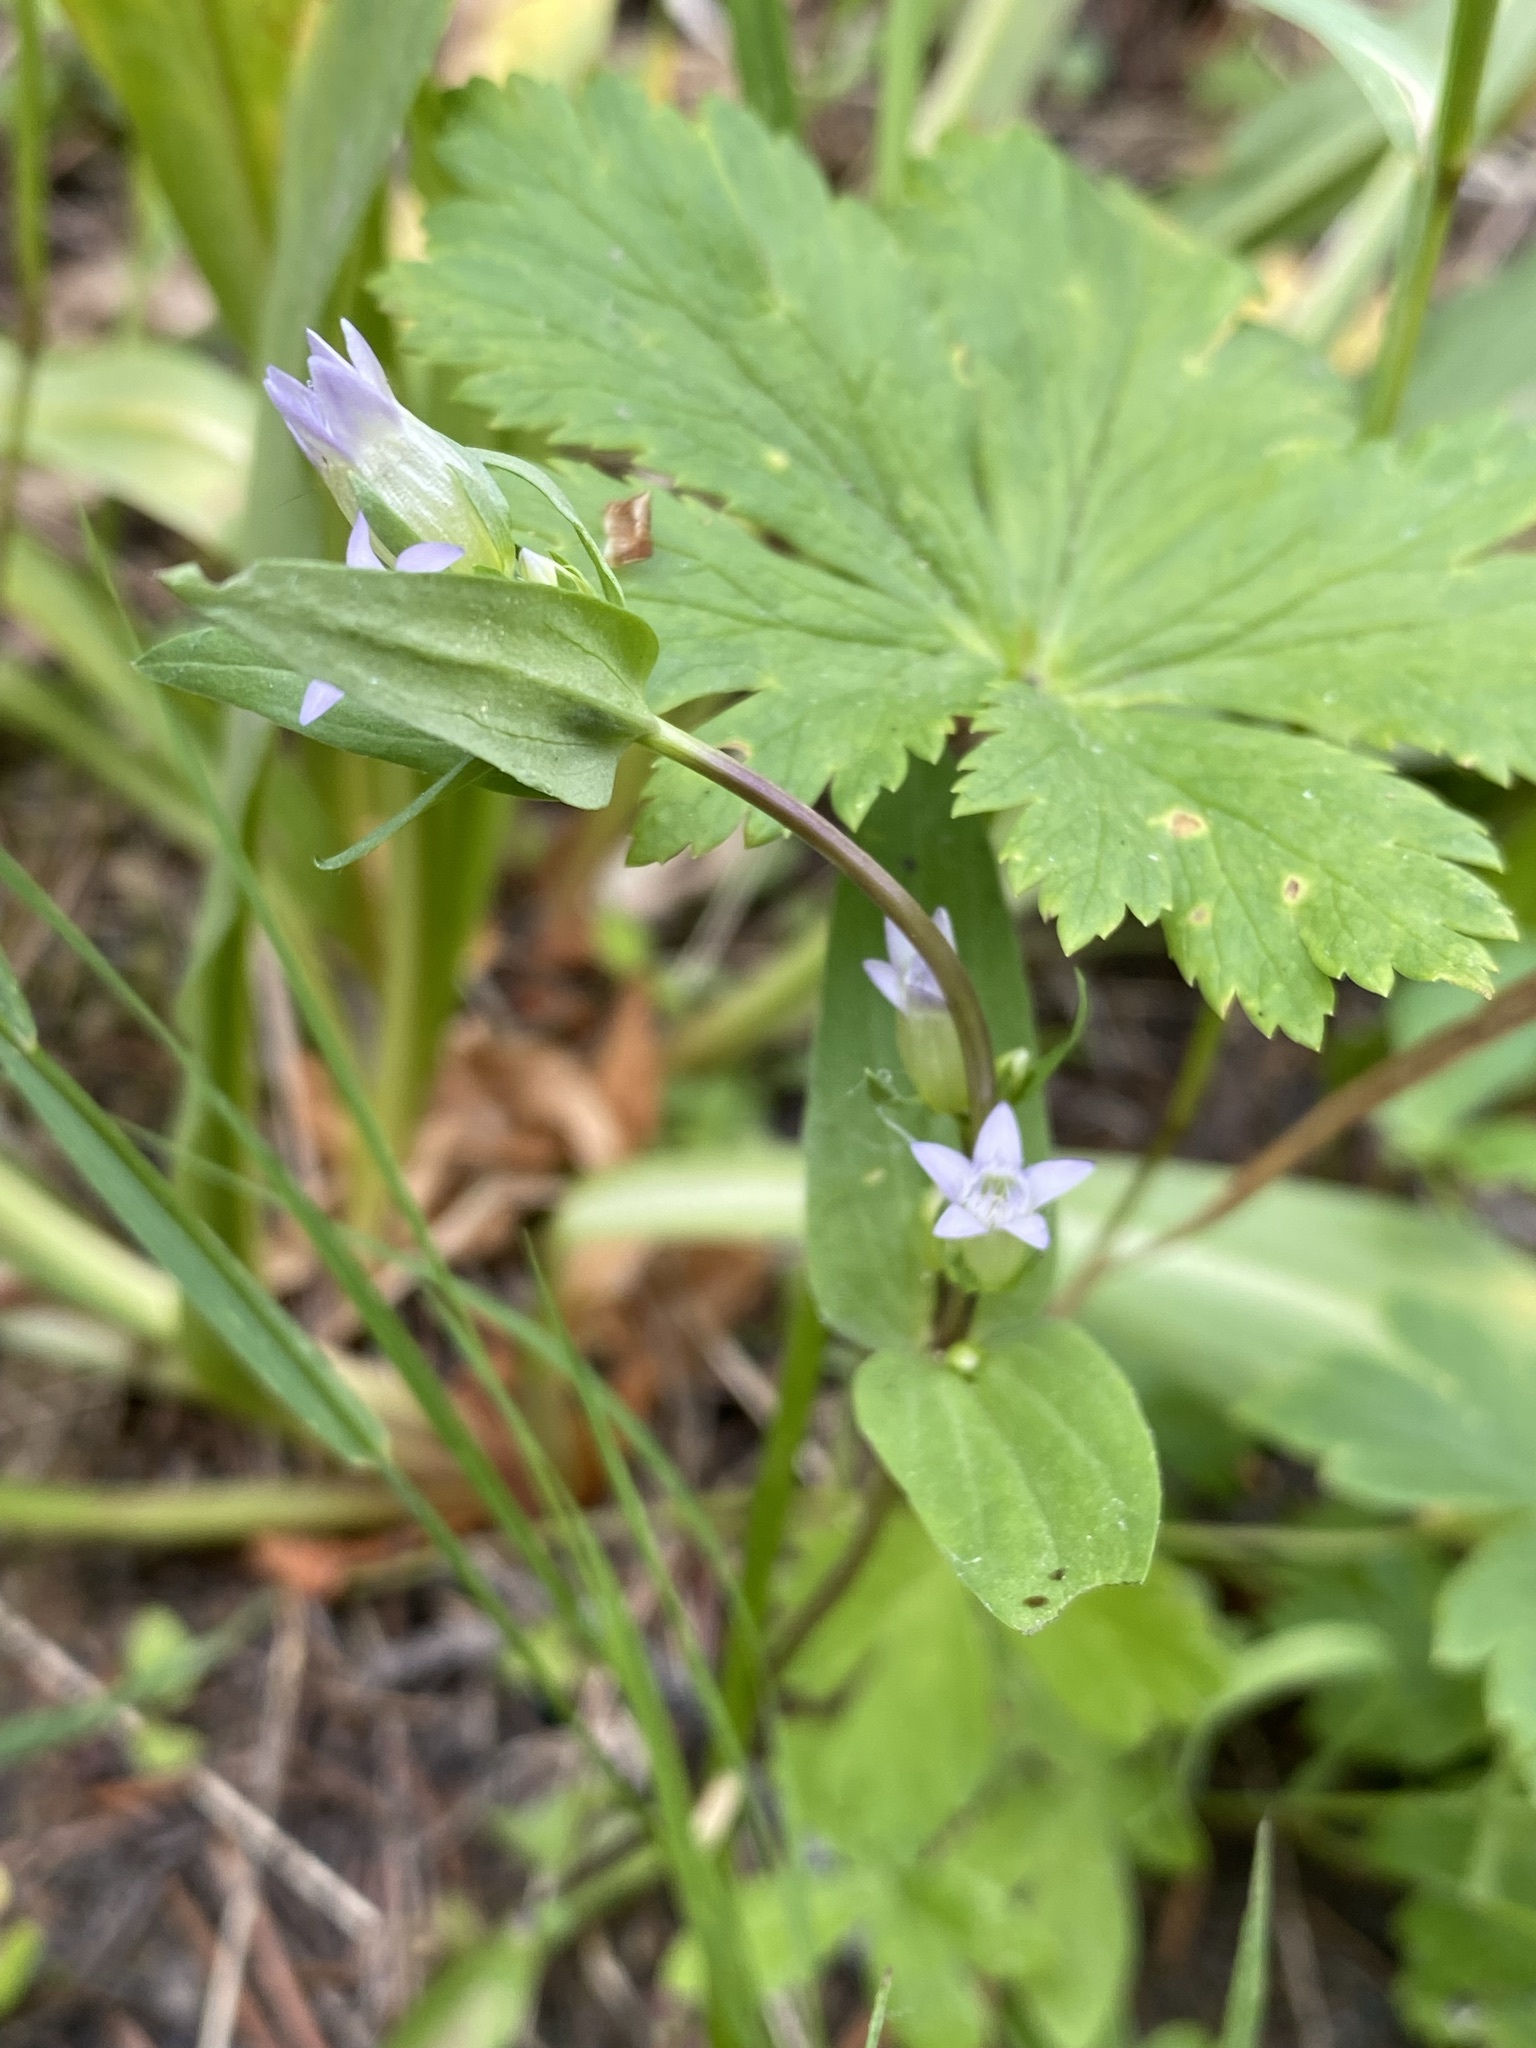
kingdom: Plantae
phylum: Tracheophyta
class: Magnoliopsida
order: Gentianales
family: Gentianaceae
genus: Gentianella
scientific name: Gentianella amarella
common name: Autumn gentian
